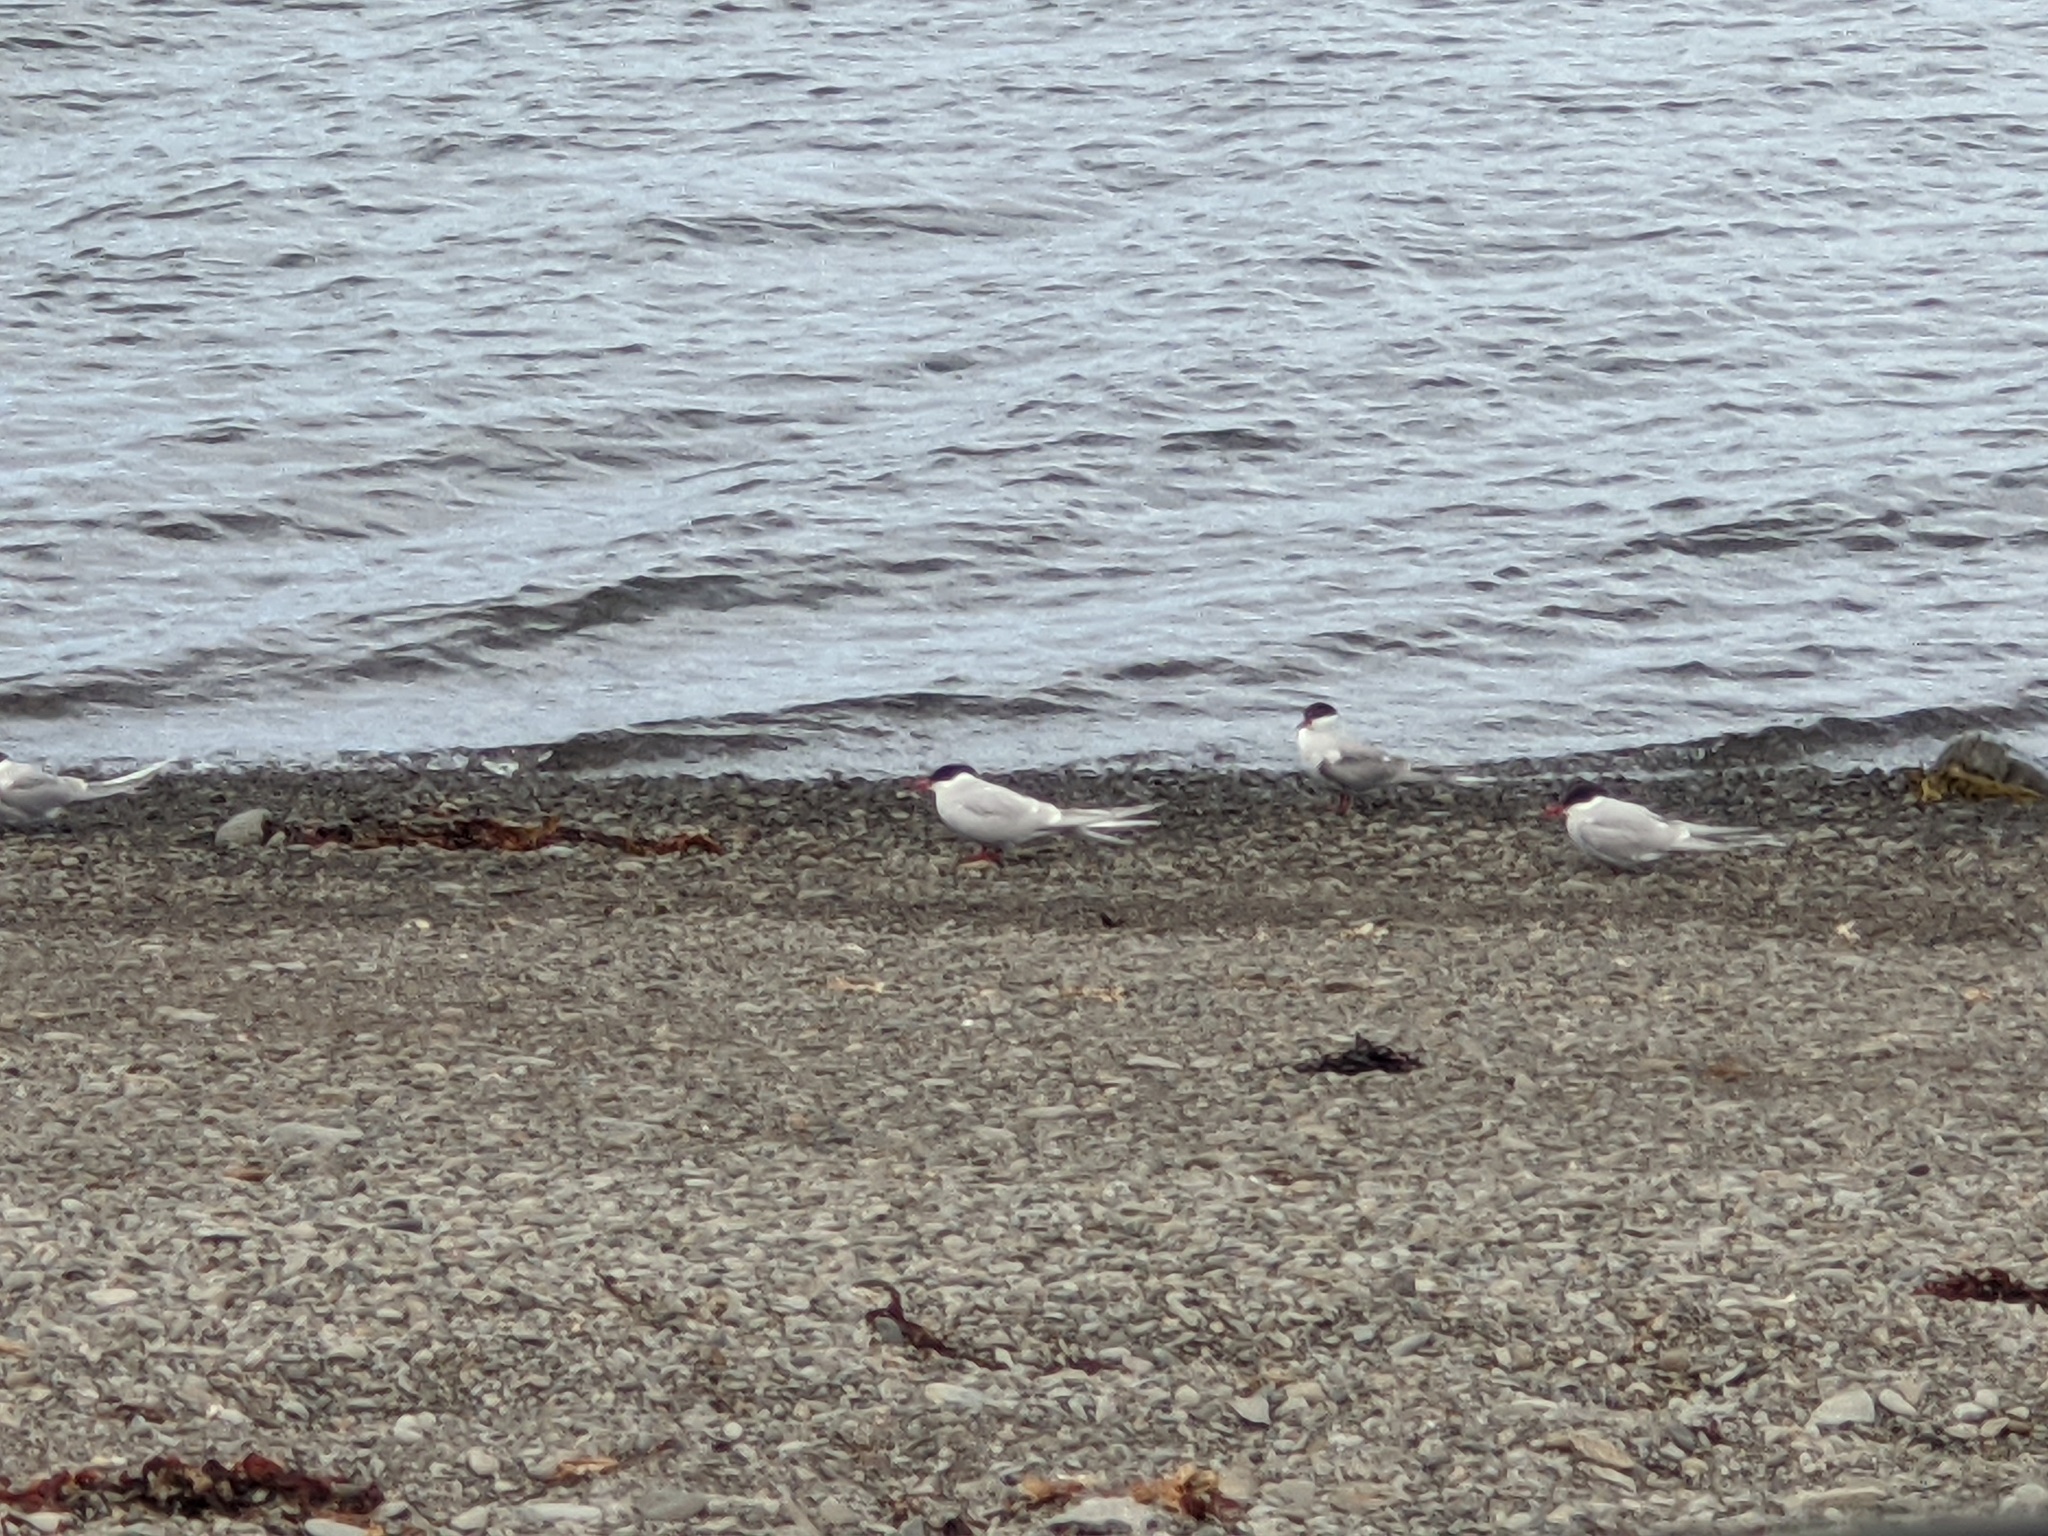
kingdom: Animalia
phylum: Chordata
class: Aves
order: Charadriiformes
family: Laridae
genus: Sterna
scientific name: Sterna paradisaea
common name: Arctic tern
